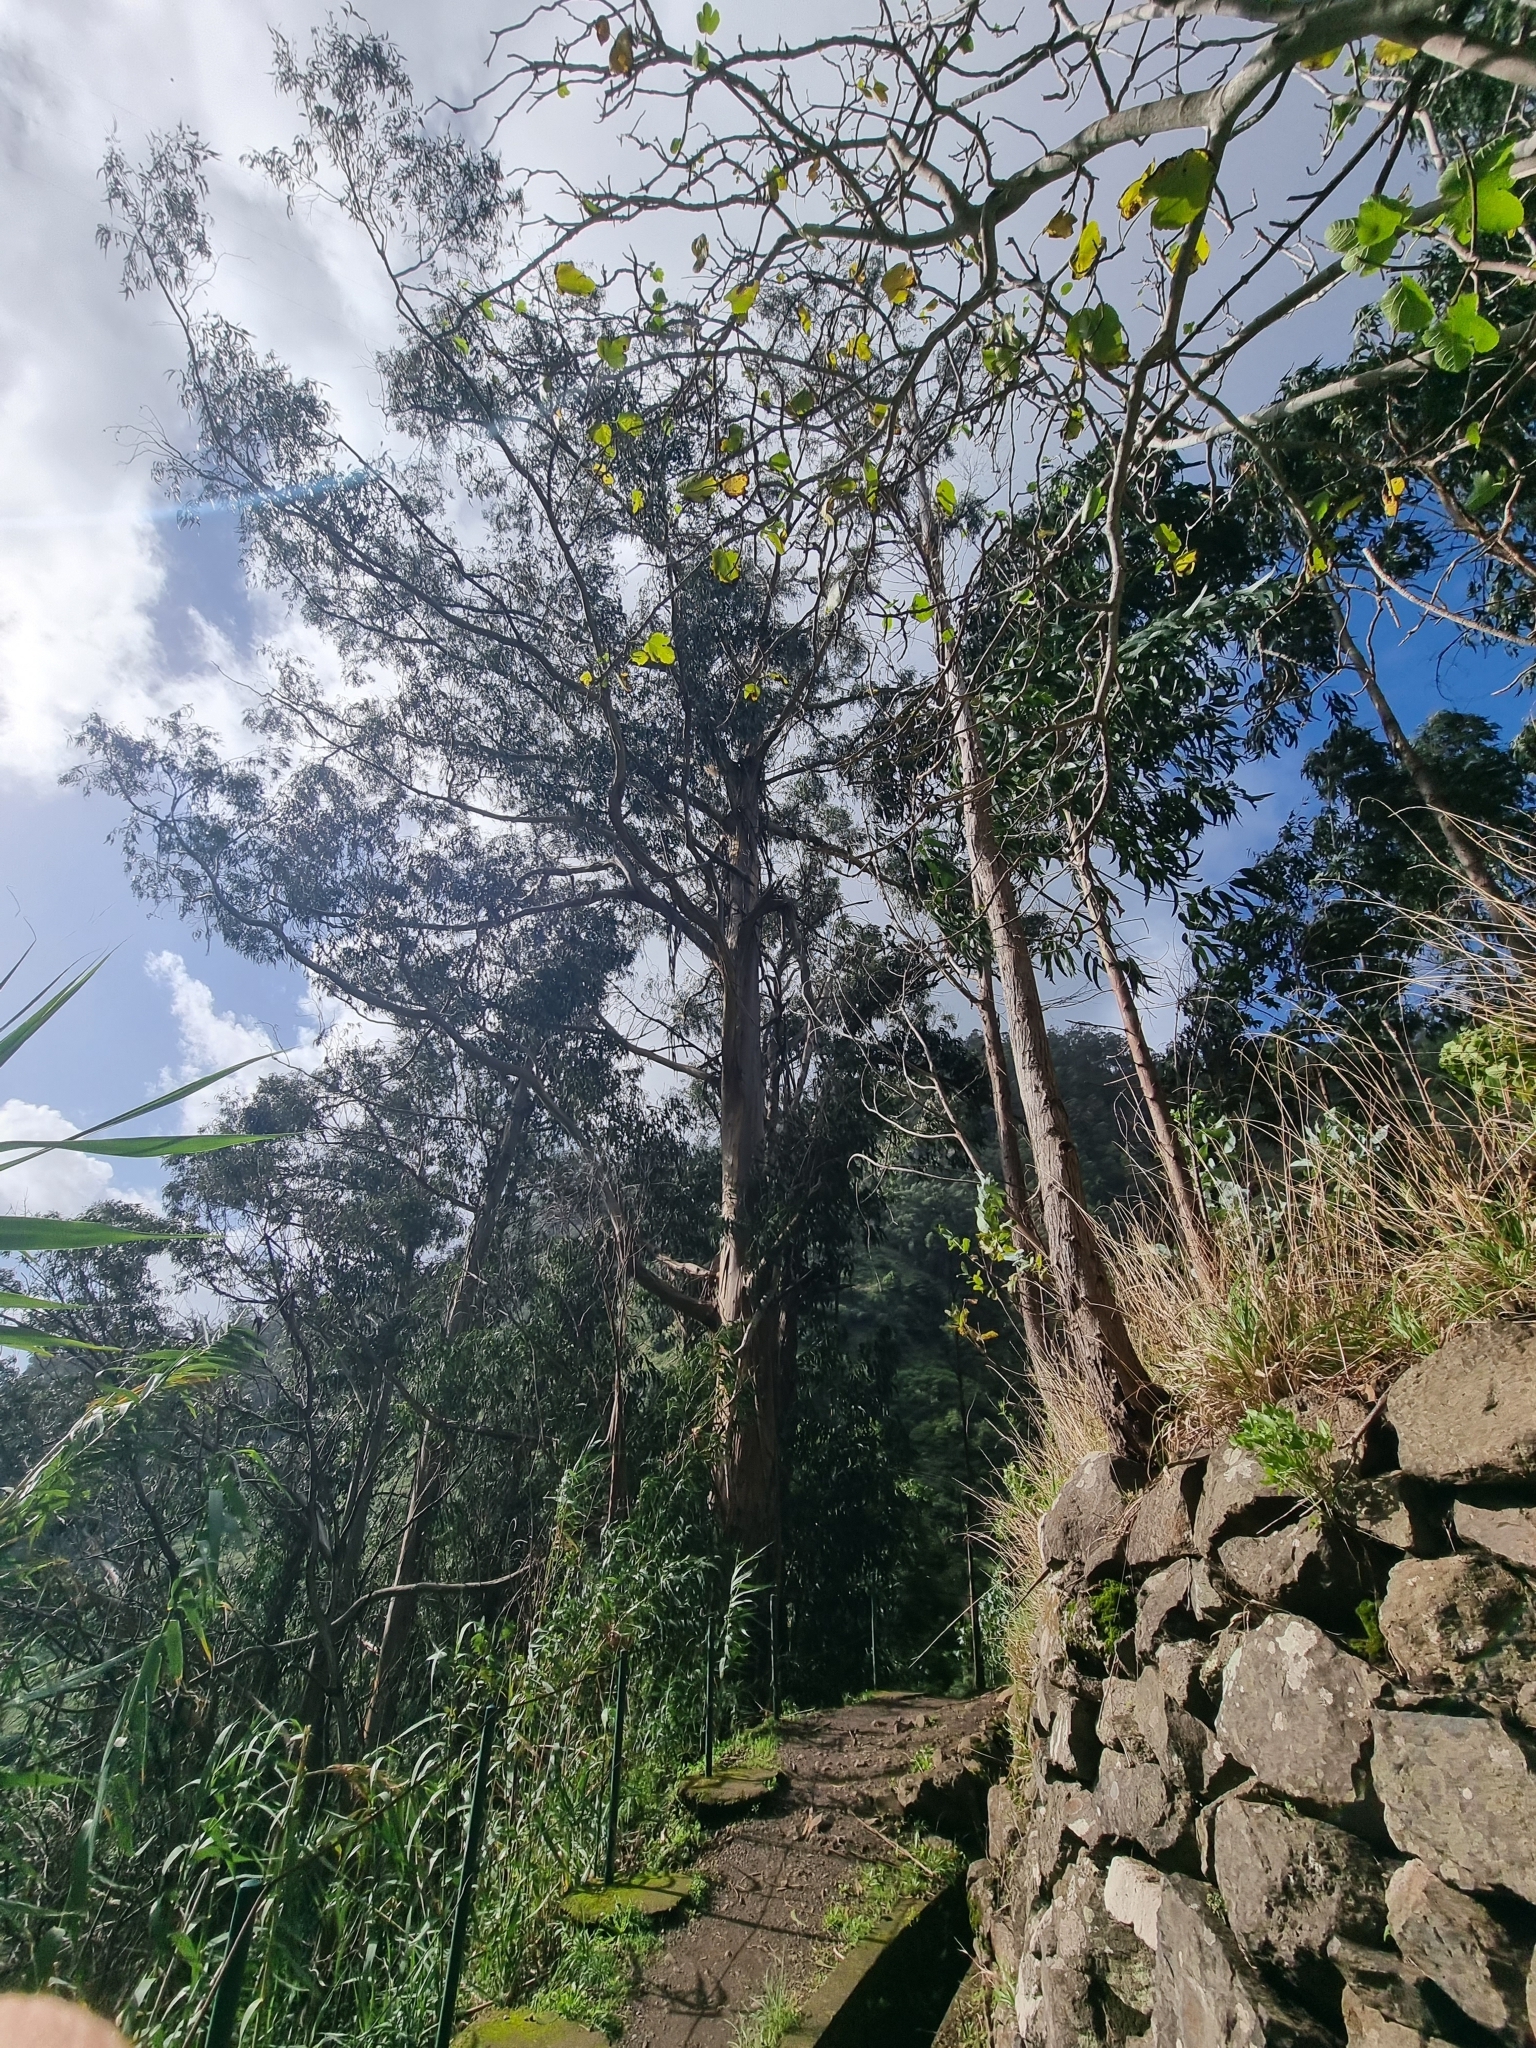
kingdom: Plantae
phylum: Tracheophyta
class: Magnoliopsida
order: Myrtales
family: Myrtaceae
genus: Eucalyptus
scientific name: Eucalyptus globulus
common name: Southern blue-gum
